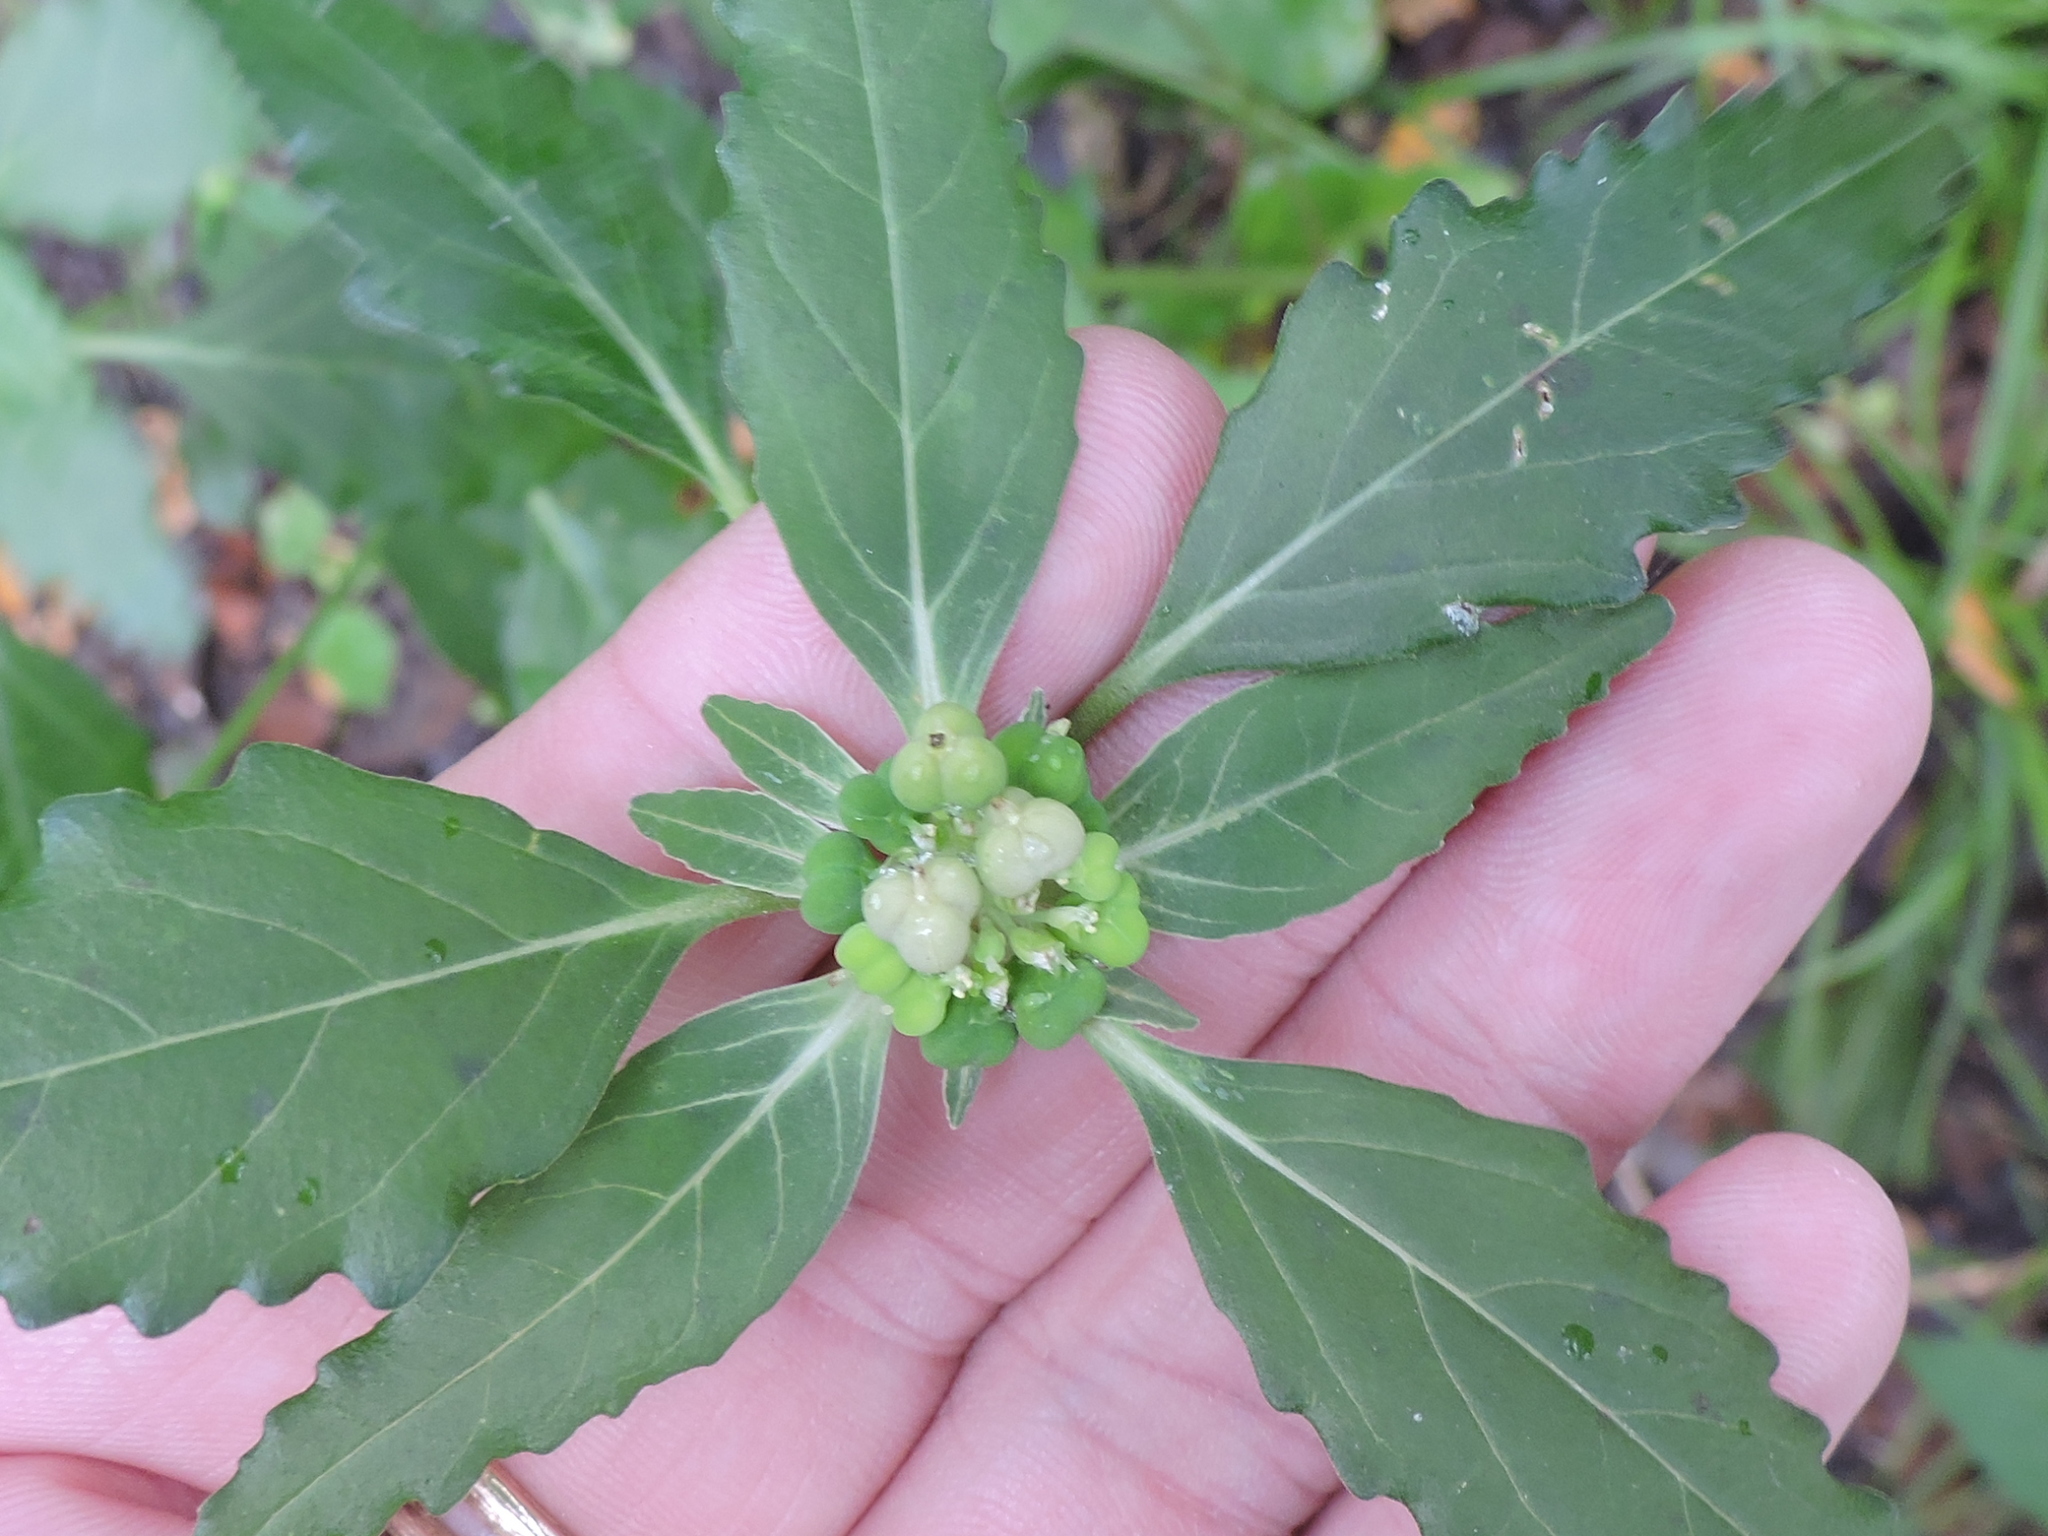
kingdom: Plantae
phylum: Tracheophyta
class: Magnoliopsida
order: Malpighiales
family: Euphorbiaceae
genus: Euphorbia
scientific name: Euphorbia dentata
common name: Dentate spurge
